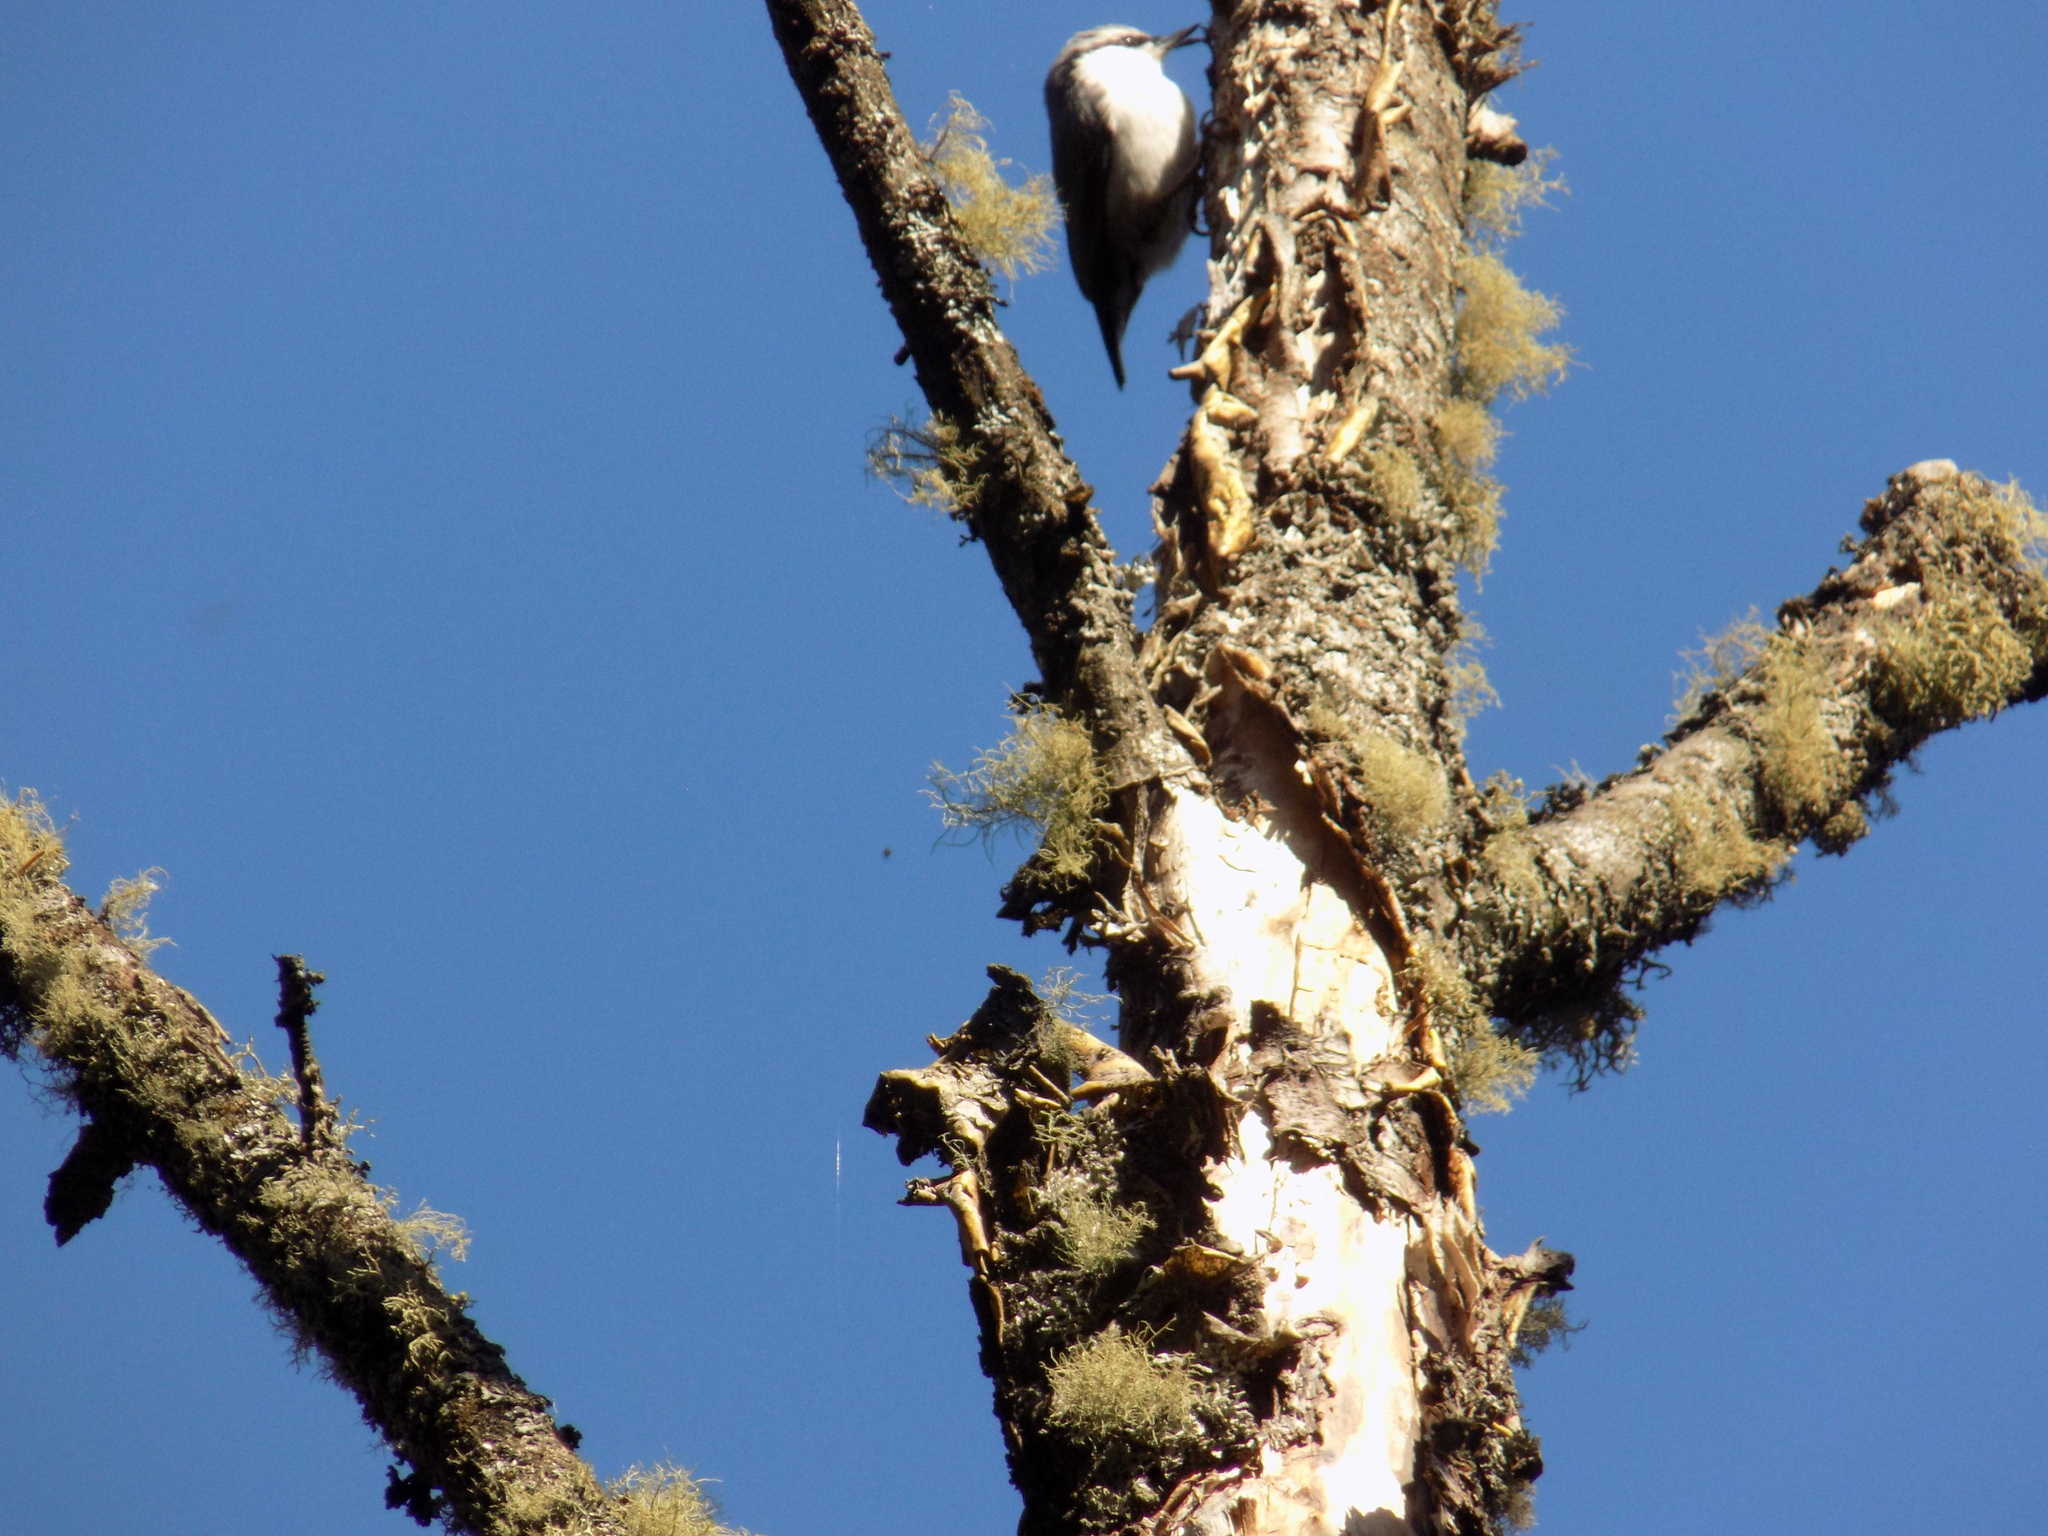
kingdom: Animalia
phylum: Chordata
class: Aves
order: Passeriformes
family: Sittidae
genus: Sitta
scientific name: Sitta europaea
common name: Eurasian nuthatch
